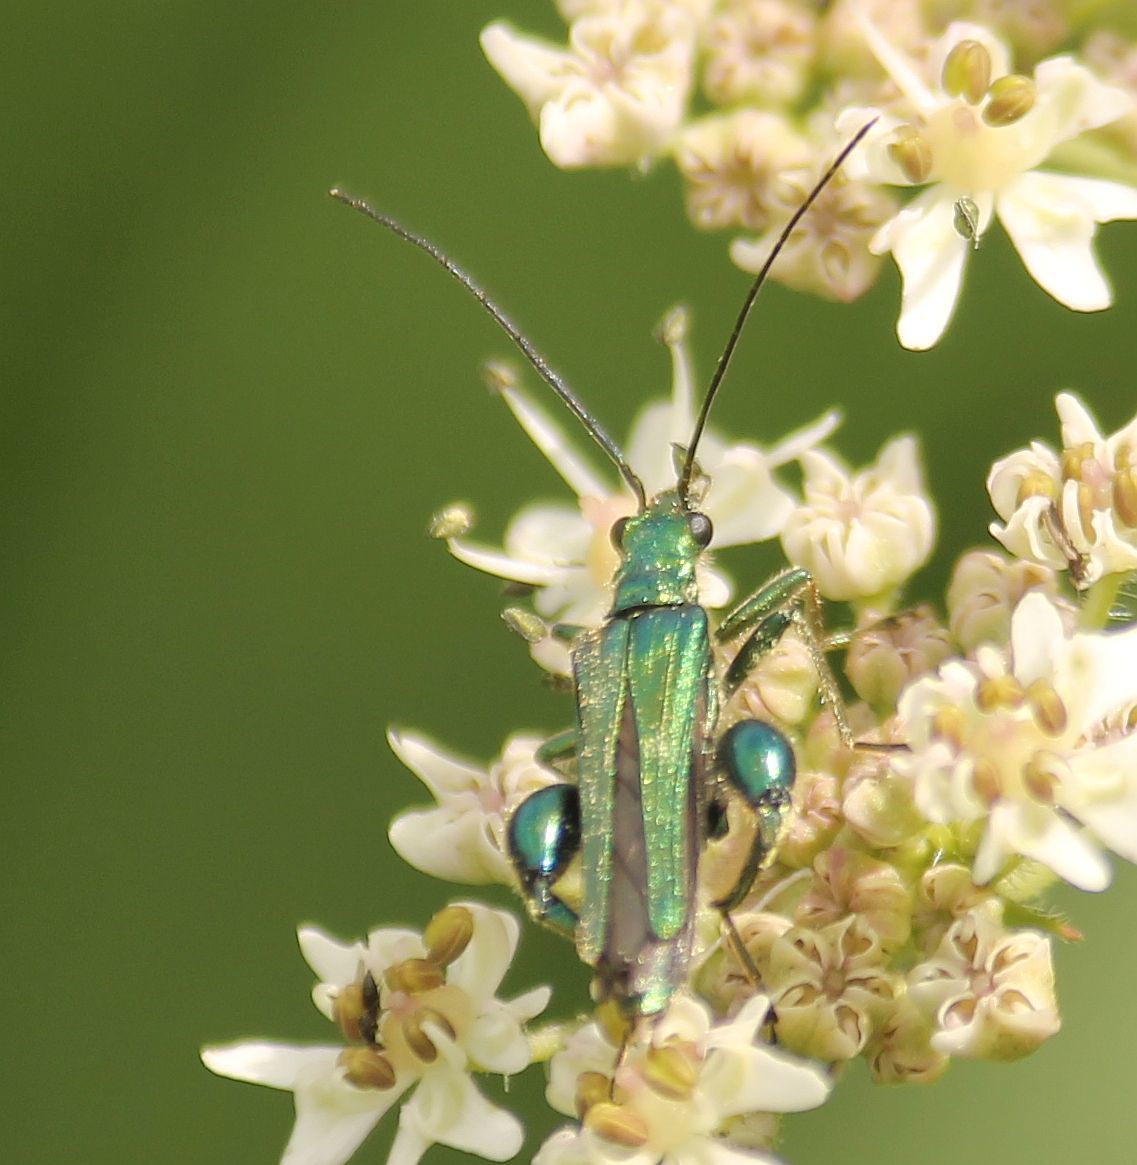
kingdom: Animalia
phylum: Arthropoda
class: Insecta
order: Coleoptera
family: Oedemeridae
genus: Oedemera
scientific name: Oedemera nobilis
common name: Swollen-thighed beetle
